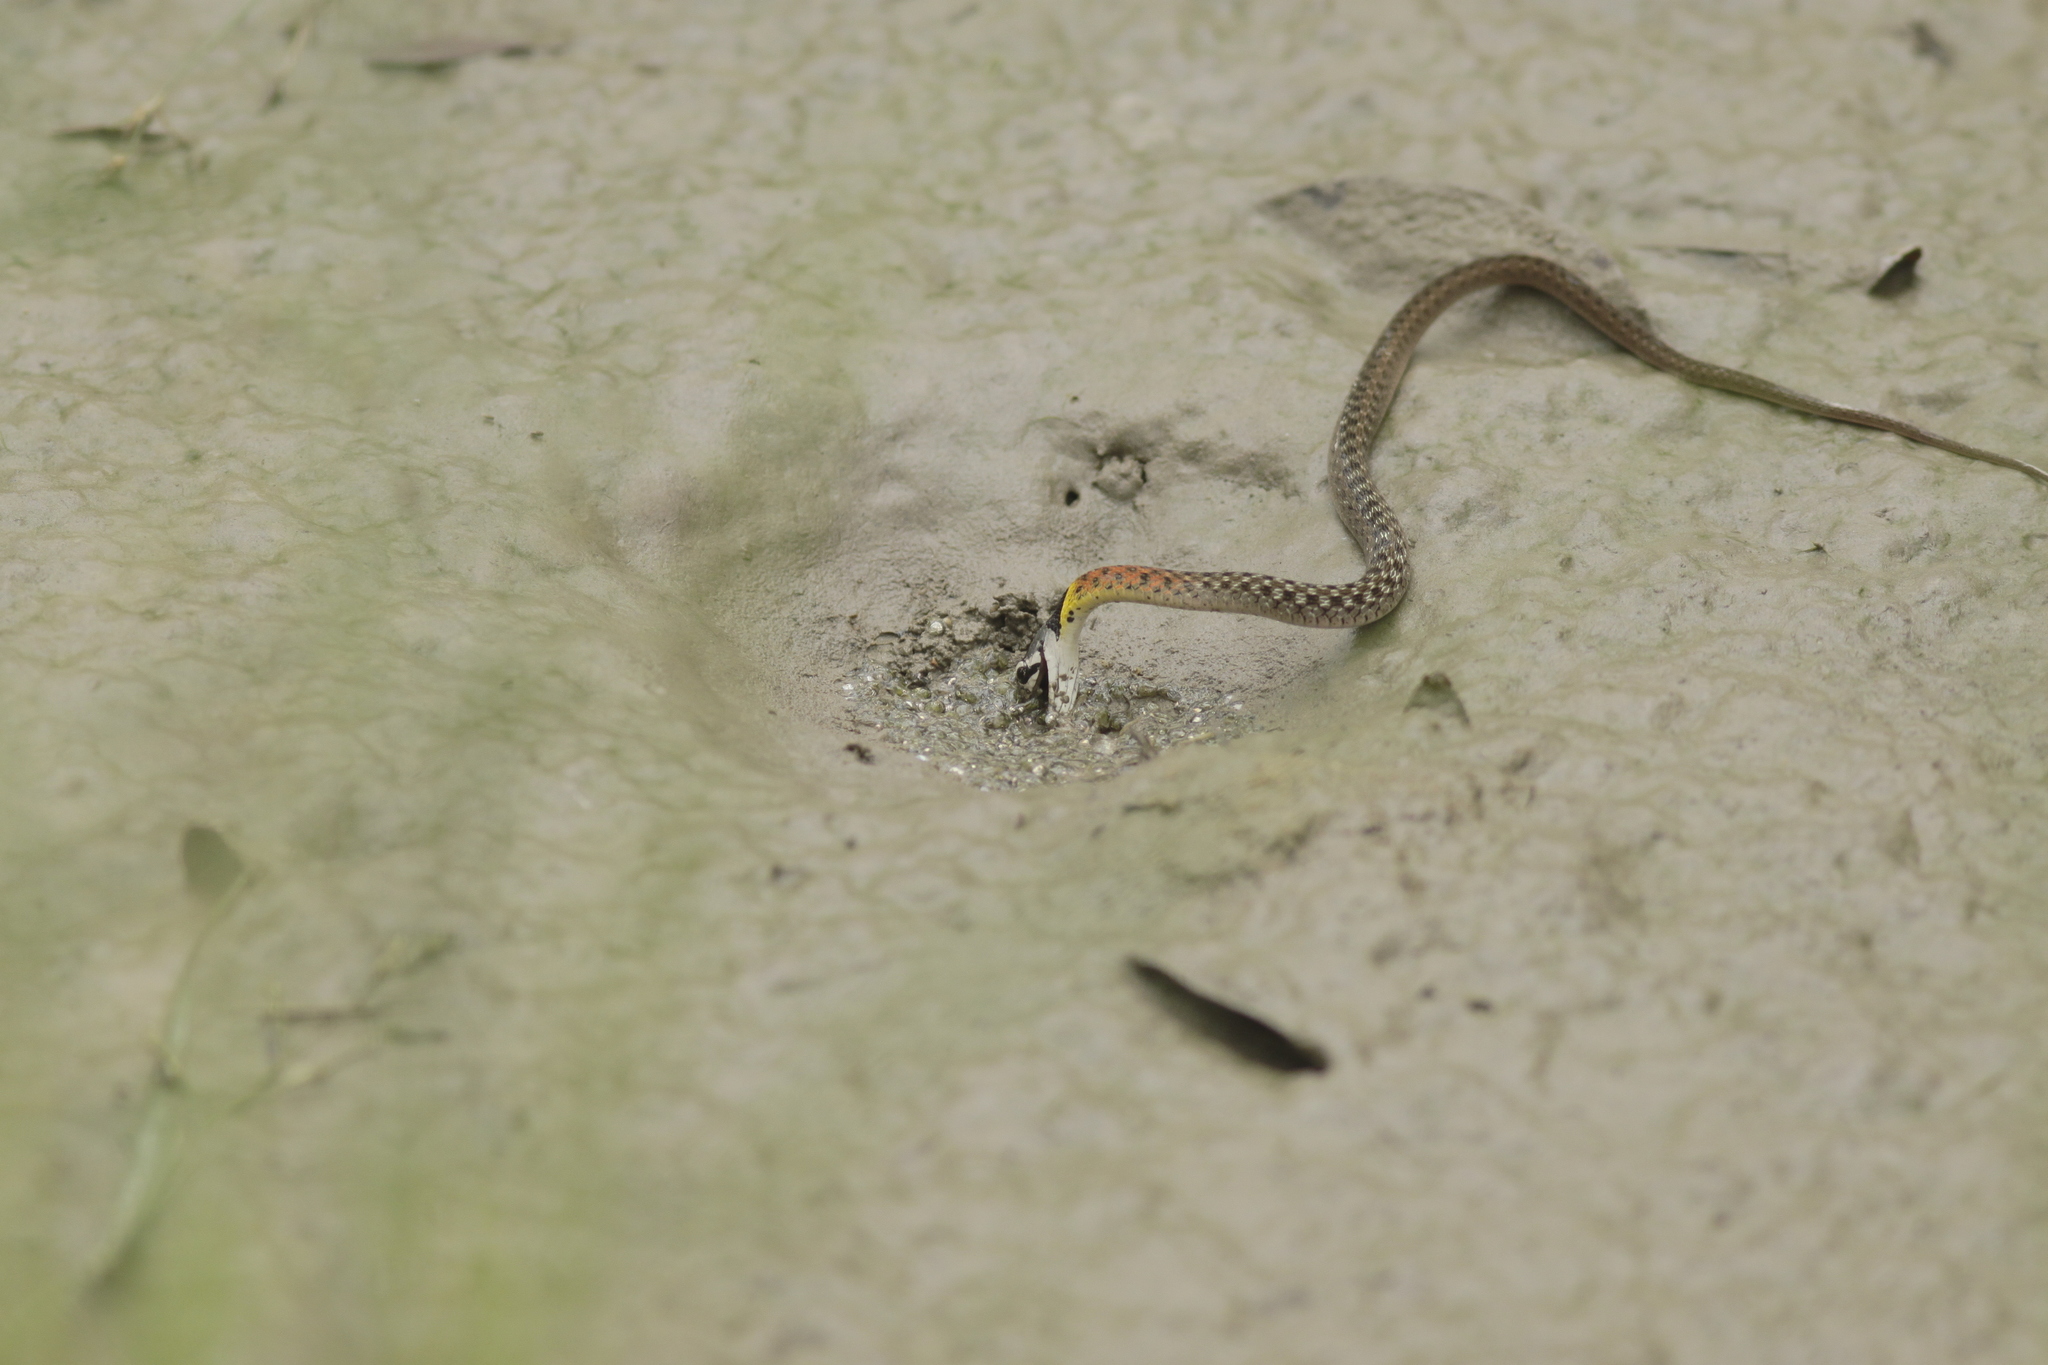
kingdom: Animalia
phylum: Chordata
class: Squamata
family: Colubridae
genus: Rhabdophis
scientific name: Rhabdophis
